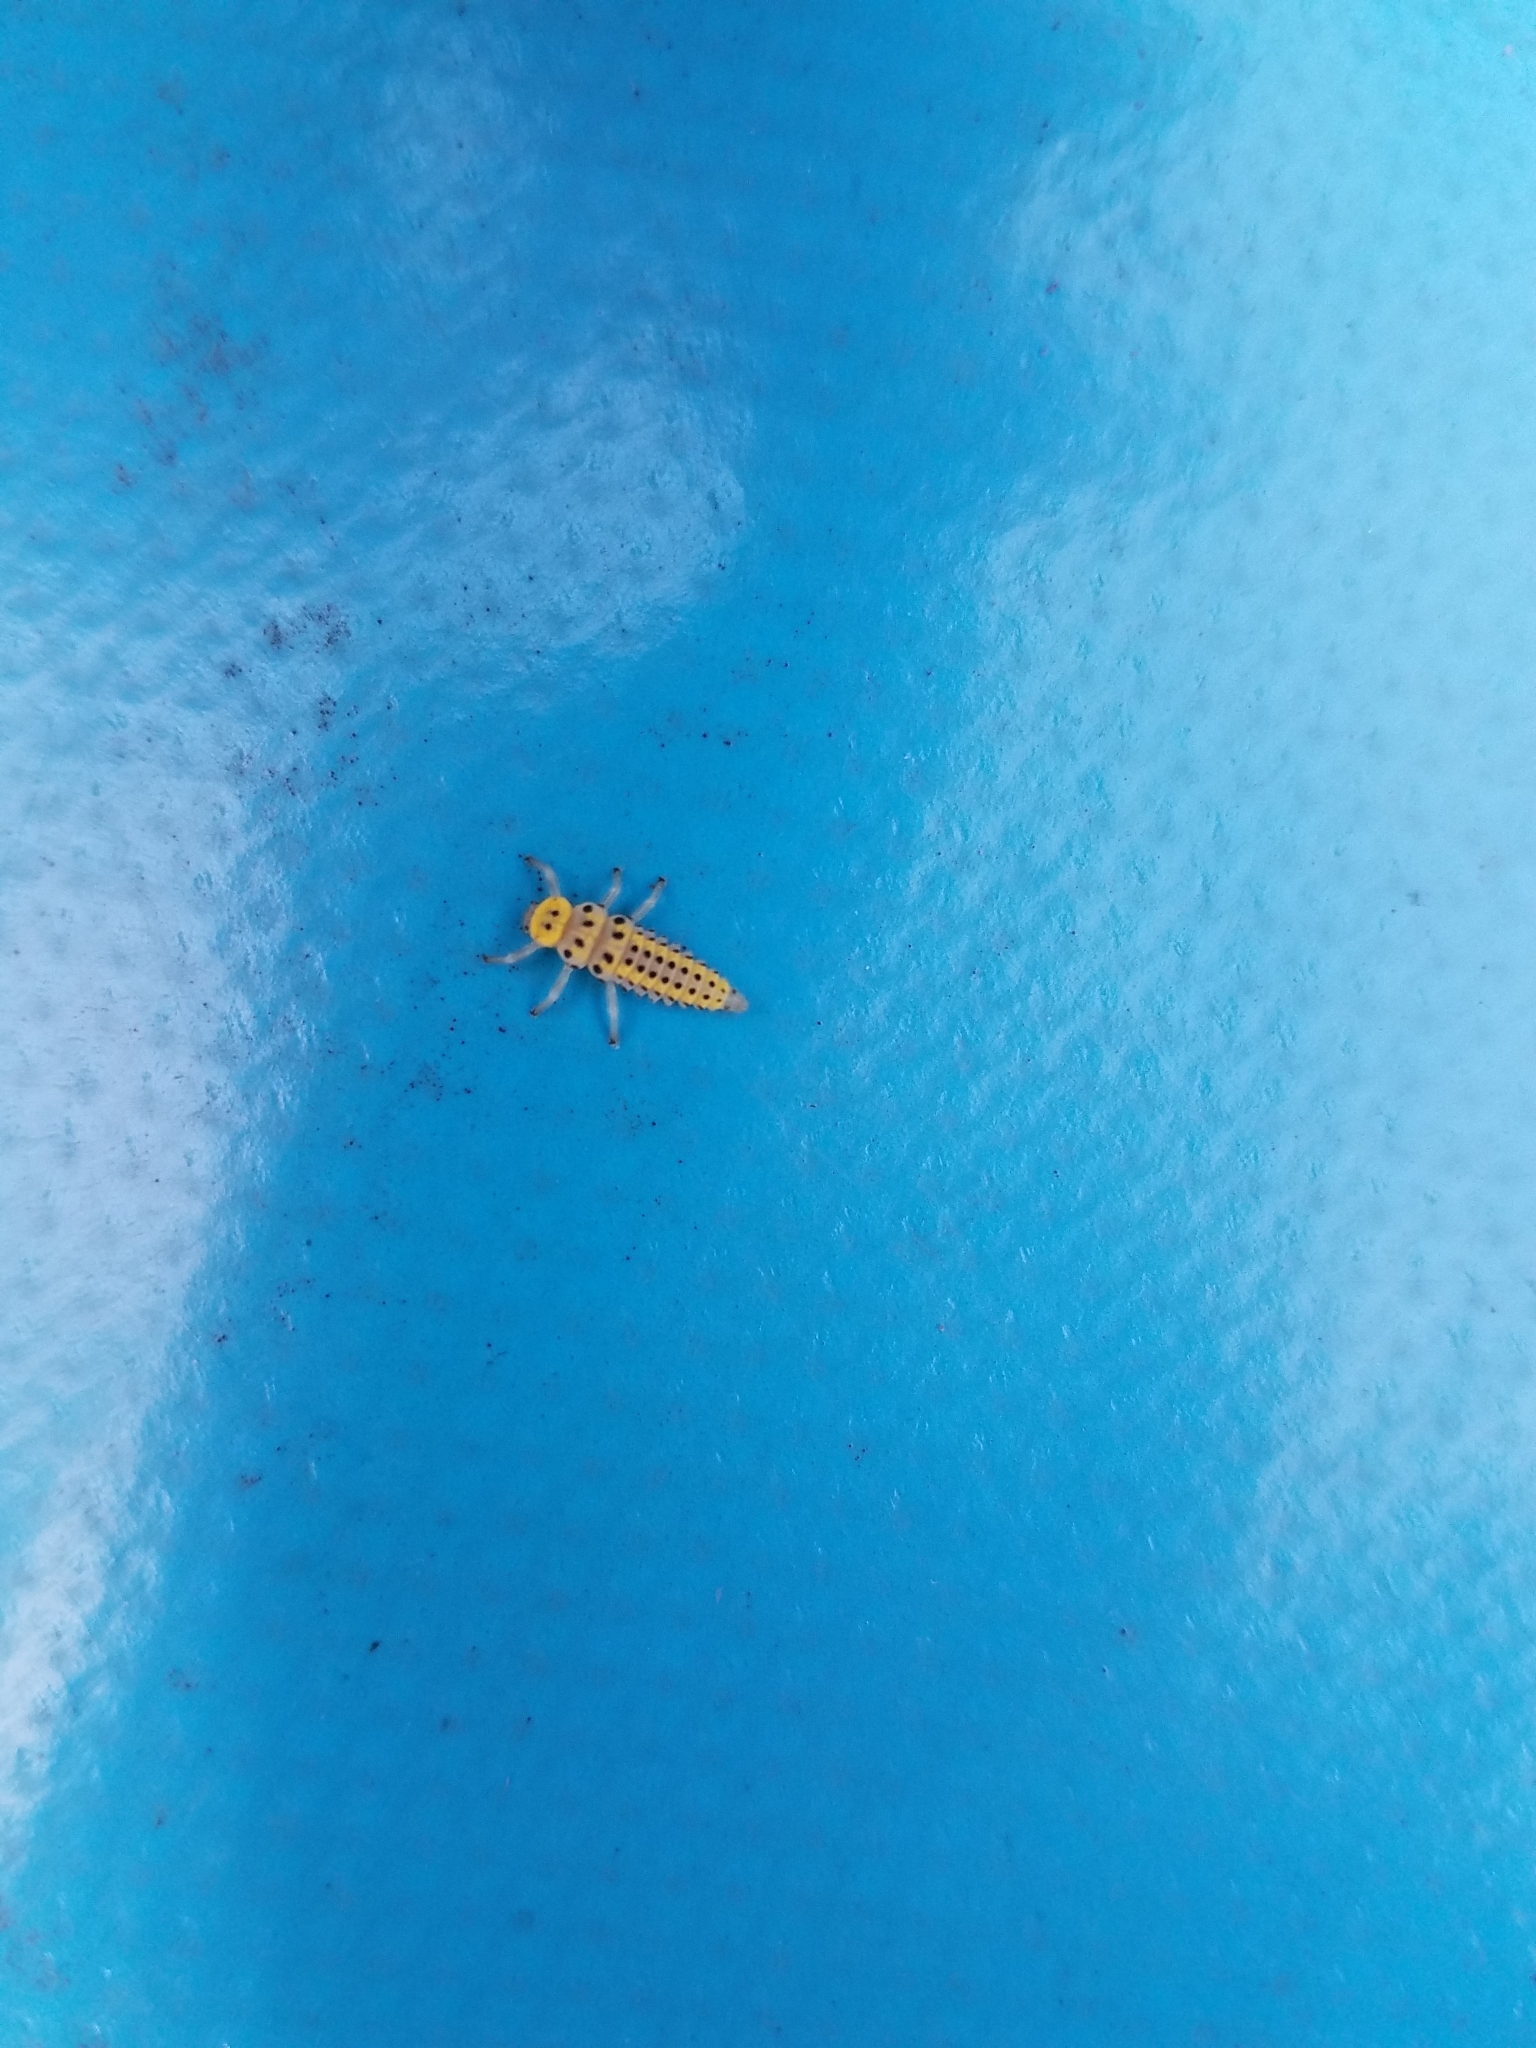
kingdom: Animalia
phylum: Arthropoda
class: Insecta
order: Coleoptera
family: Coccinellidae
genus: Halyzia
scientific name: Halyzia sedecimguttata
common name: Orange ladybird
